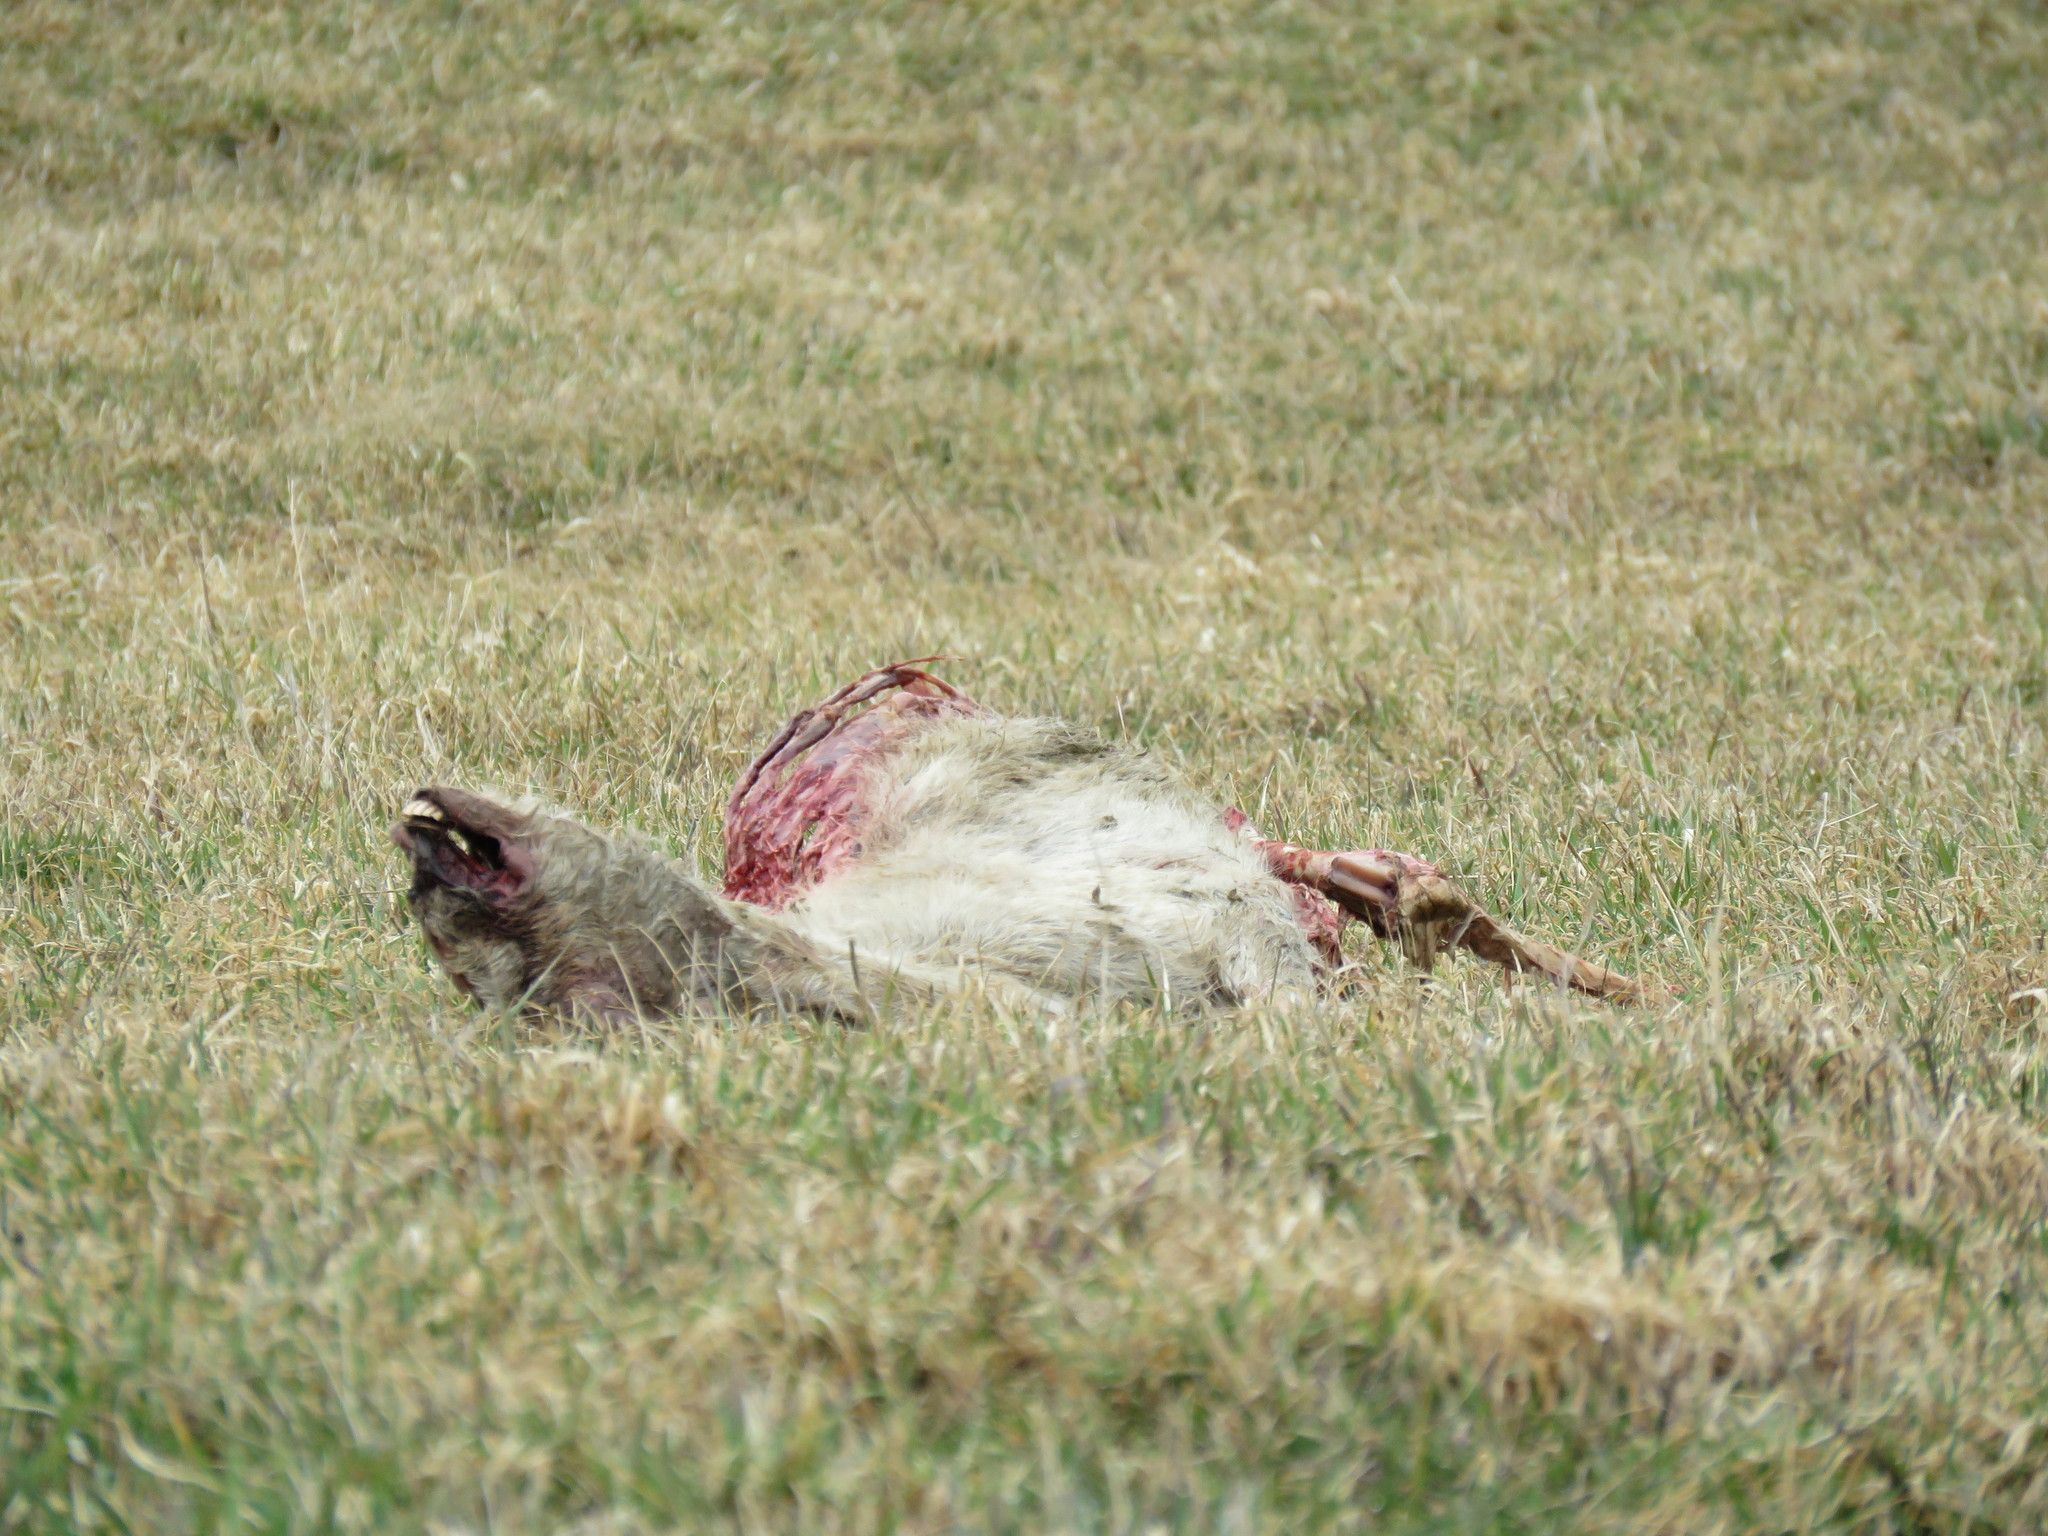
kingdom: Animalia
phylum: Chordata
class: Mammalia
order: Artiodactyla
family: Cervidae
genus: Odocoileus
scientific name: Odocoileus virginianus
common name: White-tailed deer
